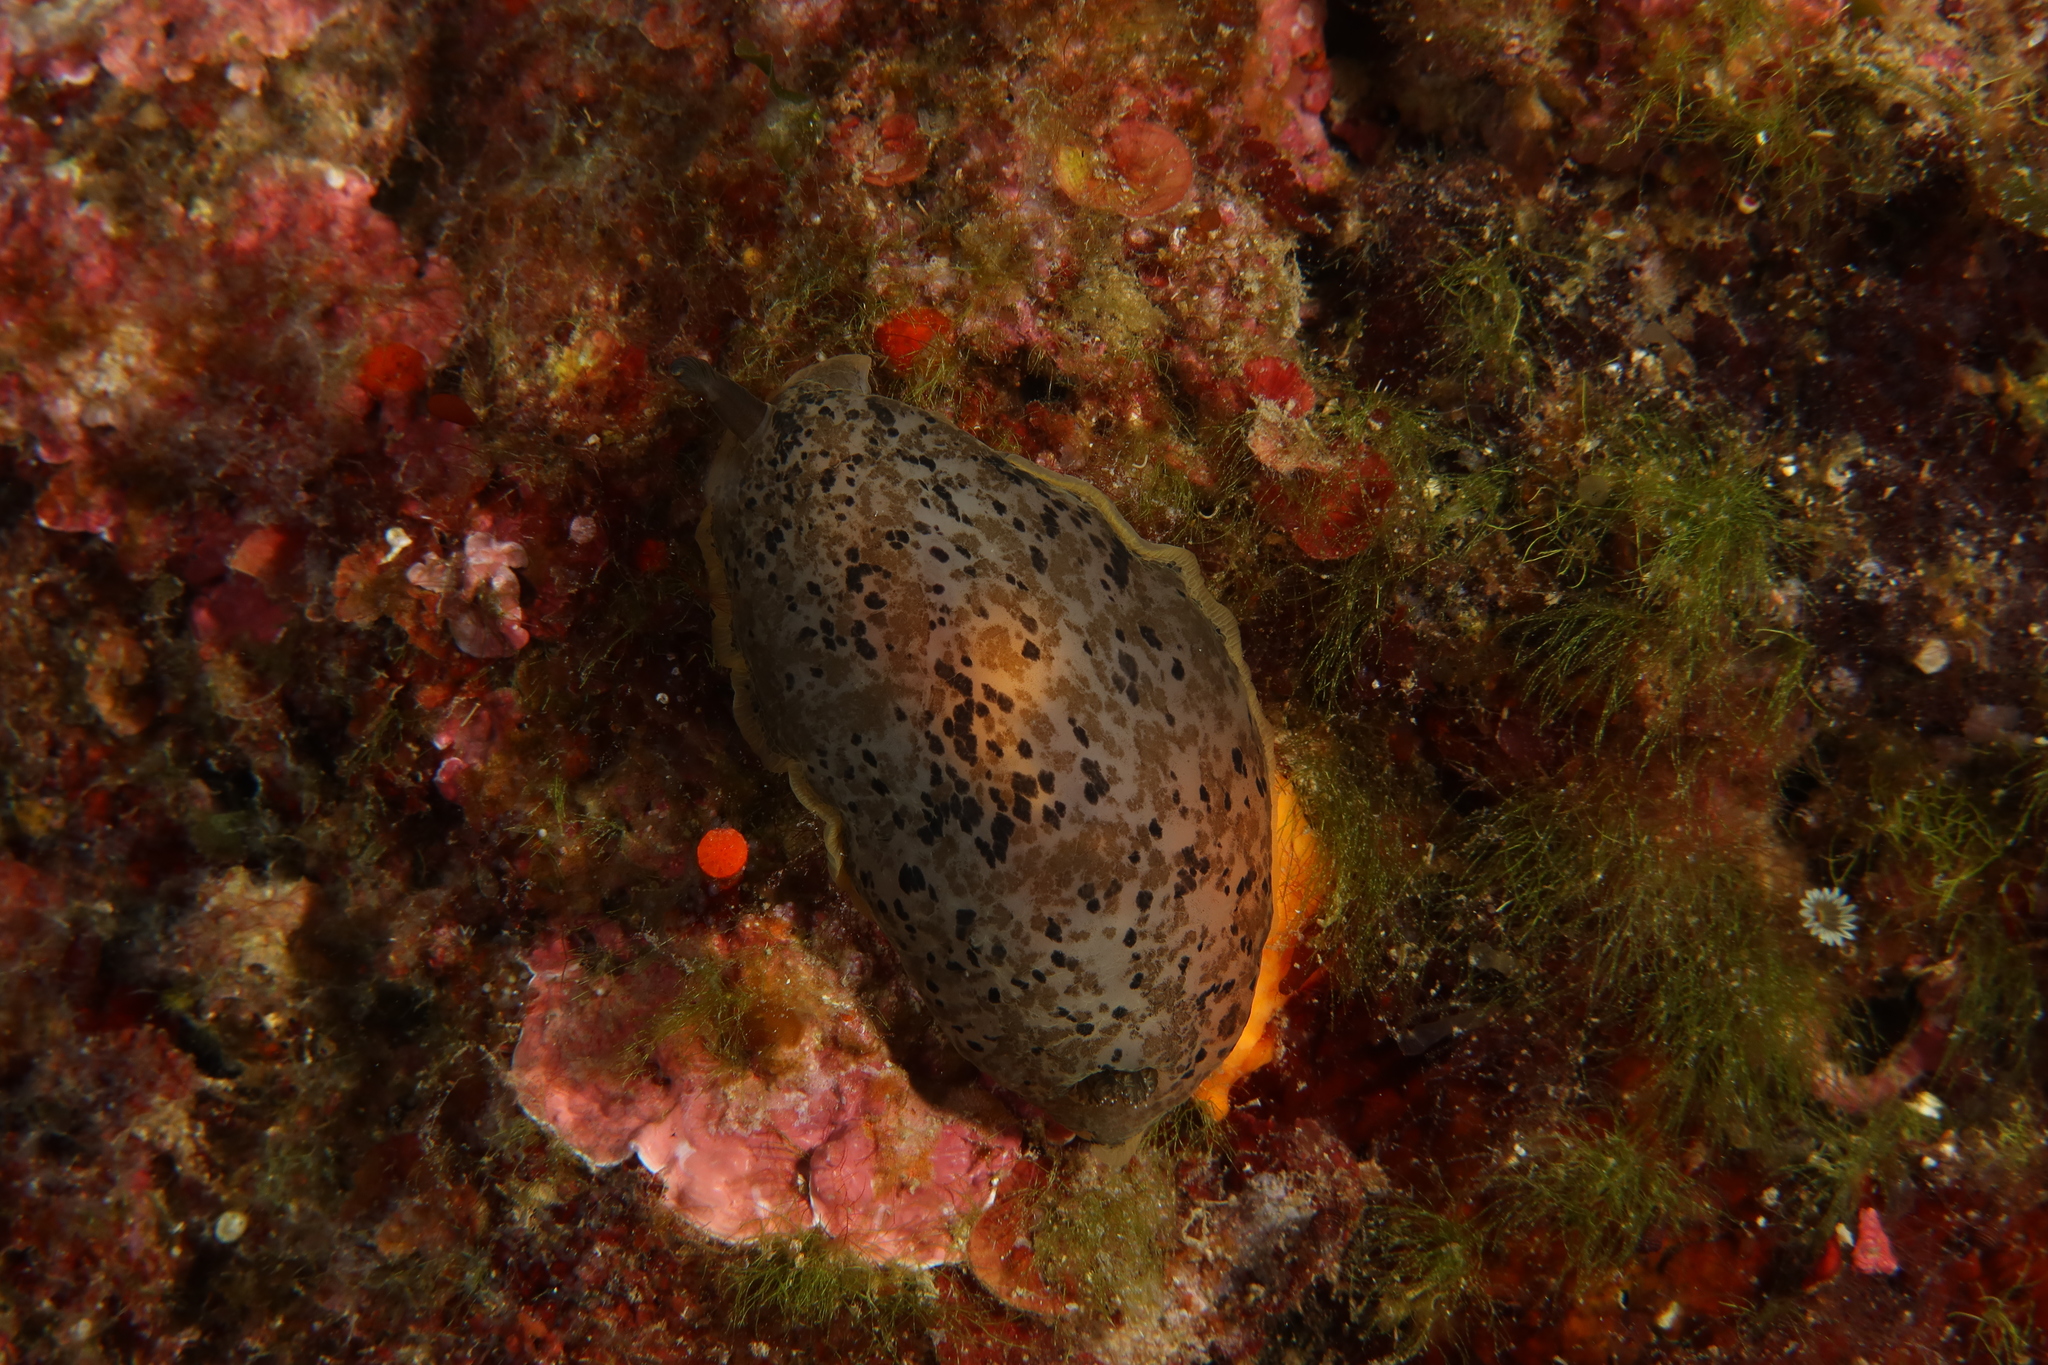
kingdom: Animalia
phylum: Mollusca
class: Gastropoda
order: Nudibranchia
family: Dendrodorididae
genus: Dendrodoris
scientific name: Dendrodoris limbata
